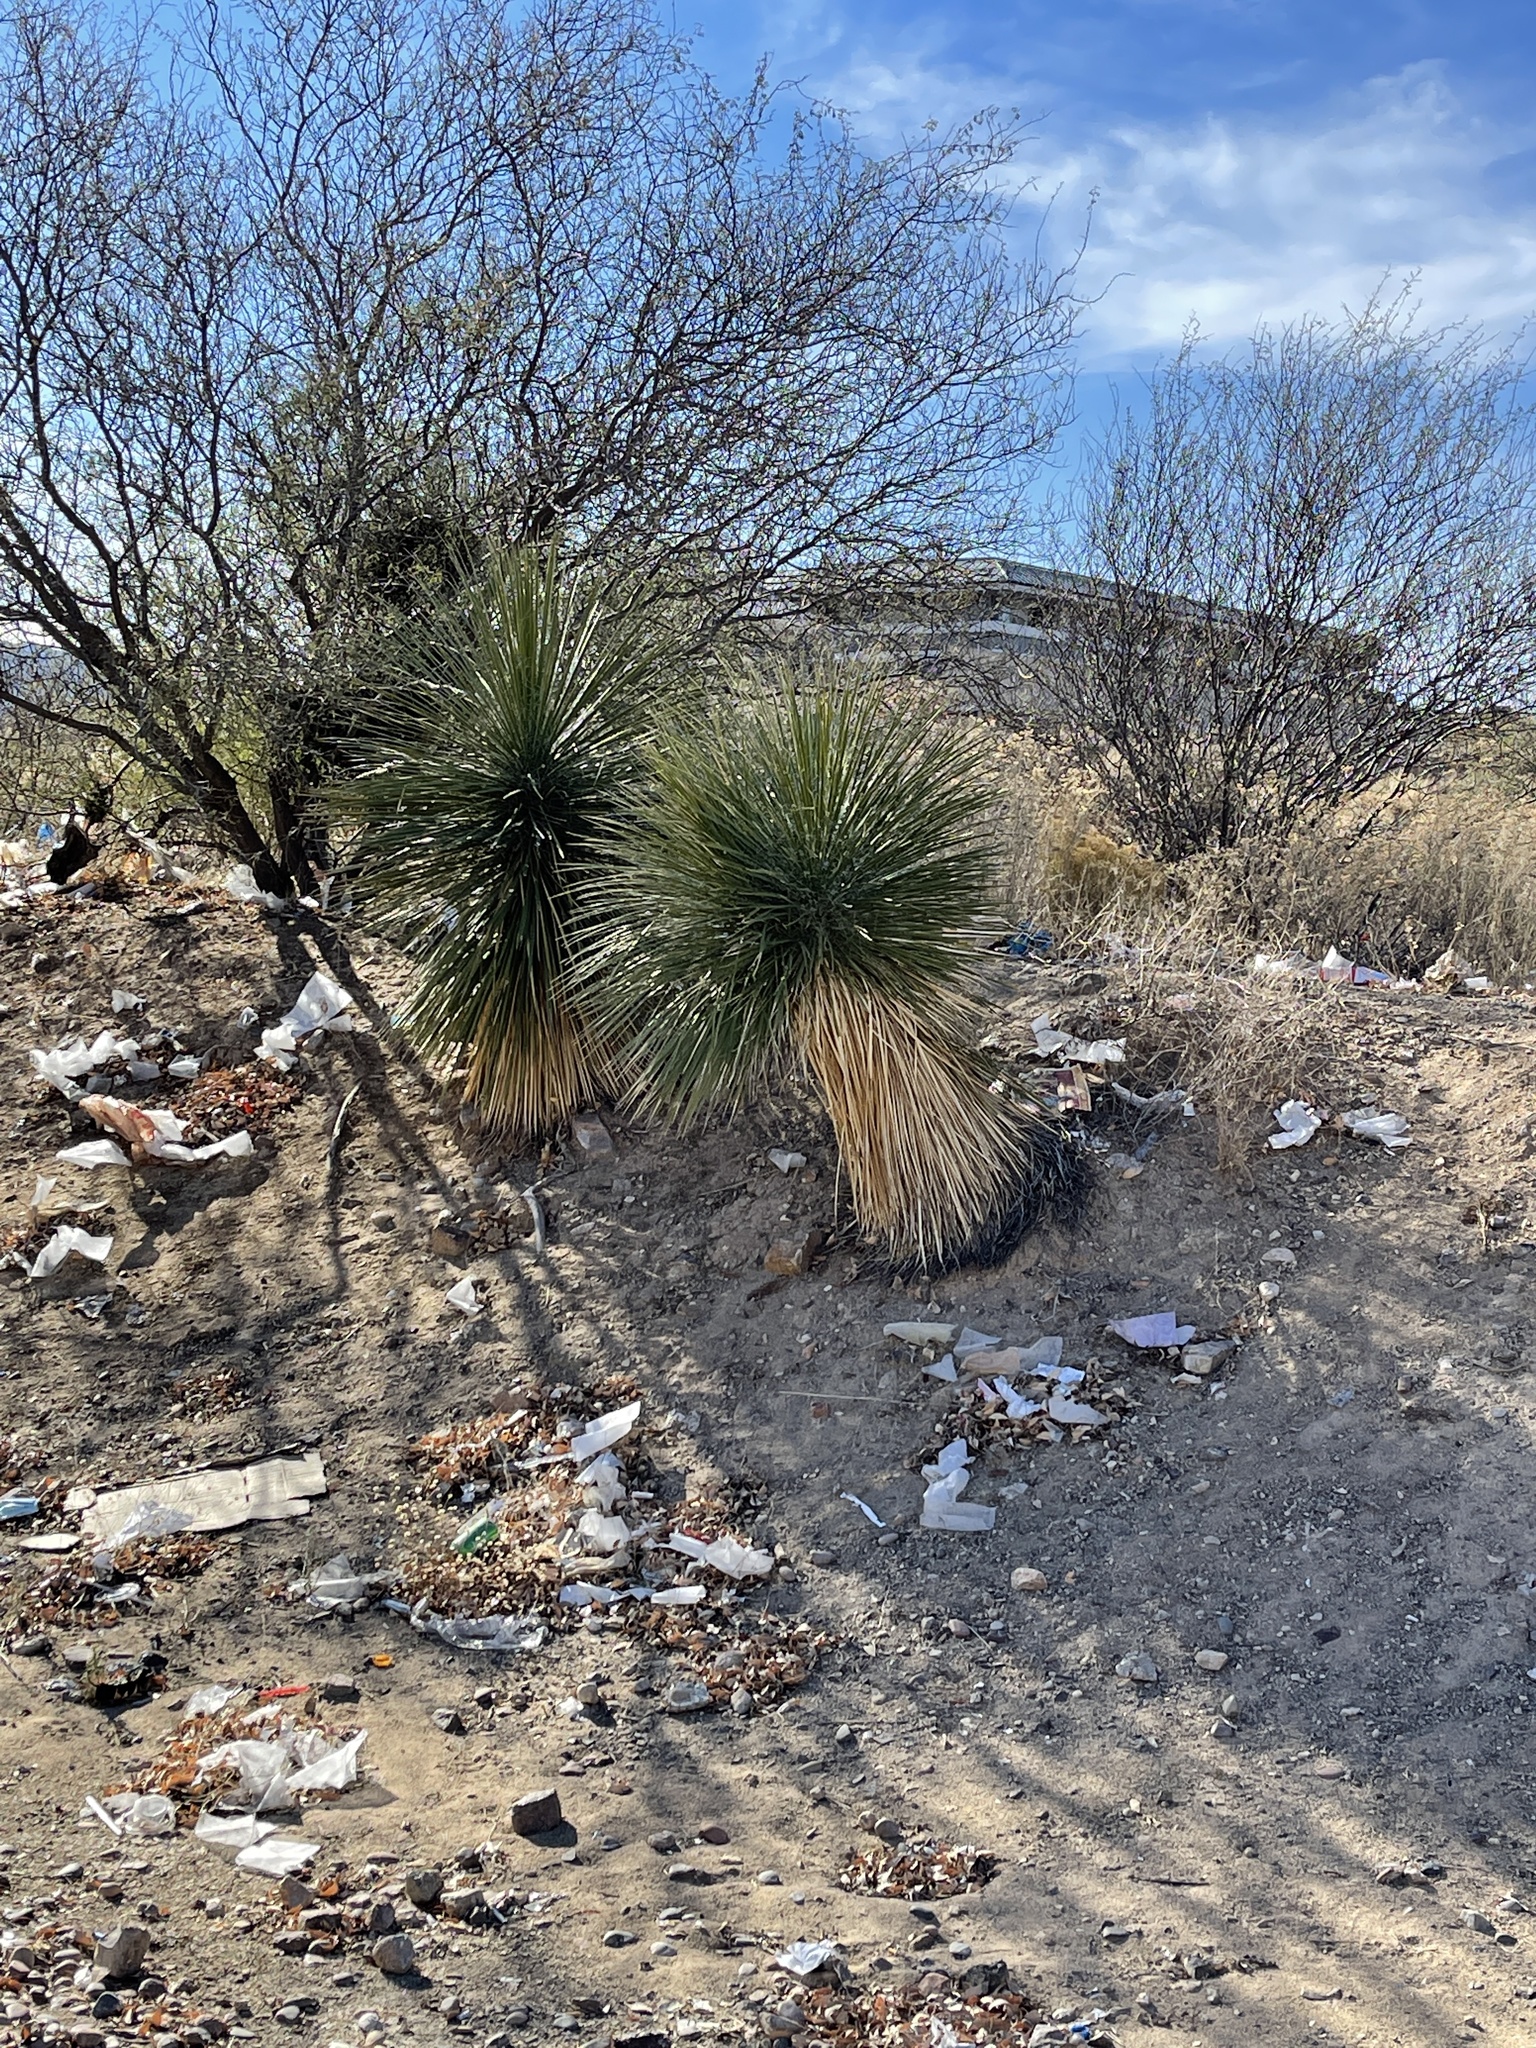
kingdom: Plantae
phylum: Tracheophyta
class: Liliopsida
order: Asparagales
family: Asparagaceae
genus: Yucca
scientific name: Yucca elata
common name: Palmella
